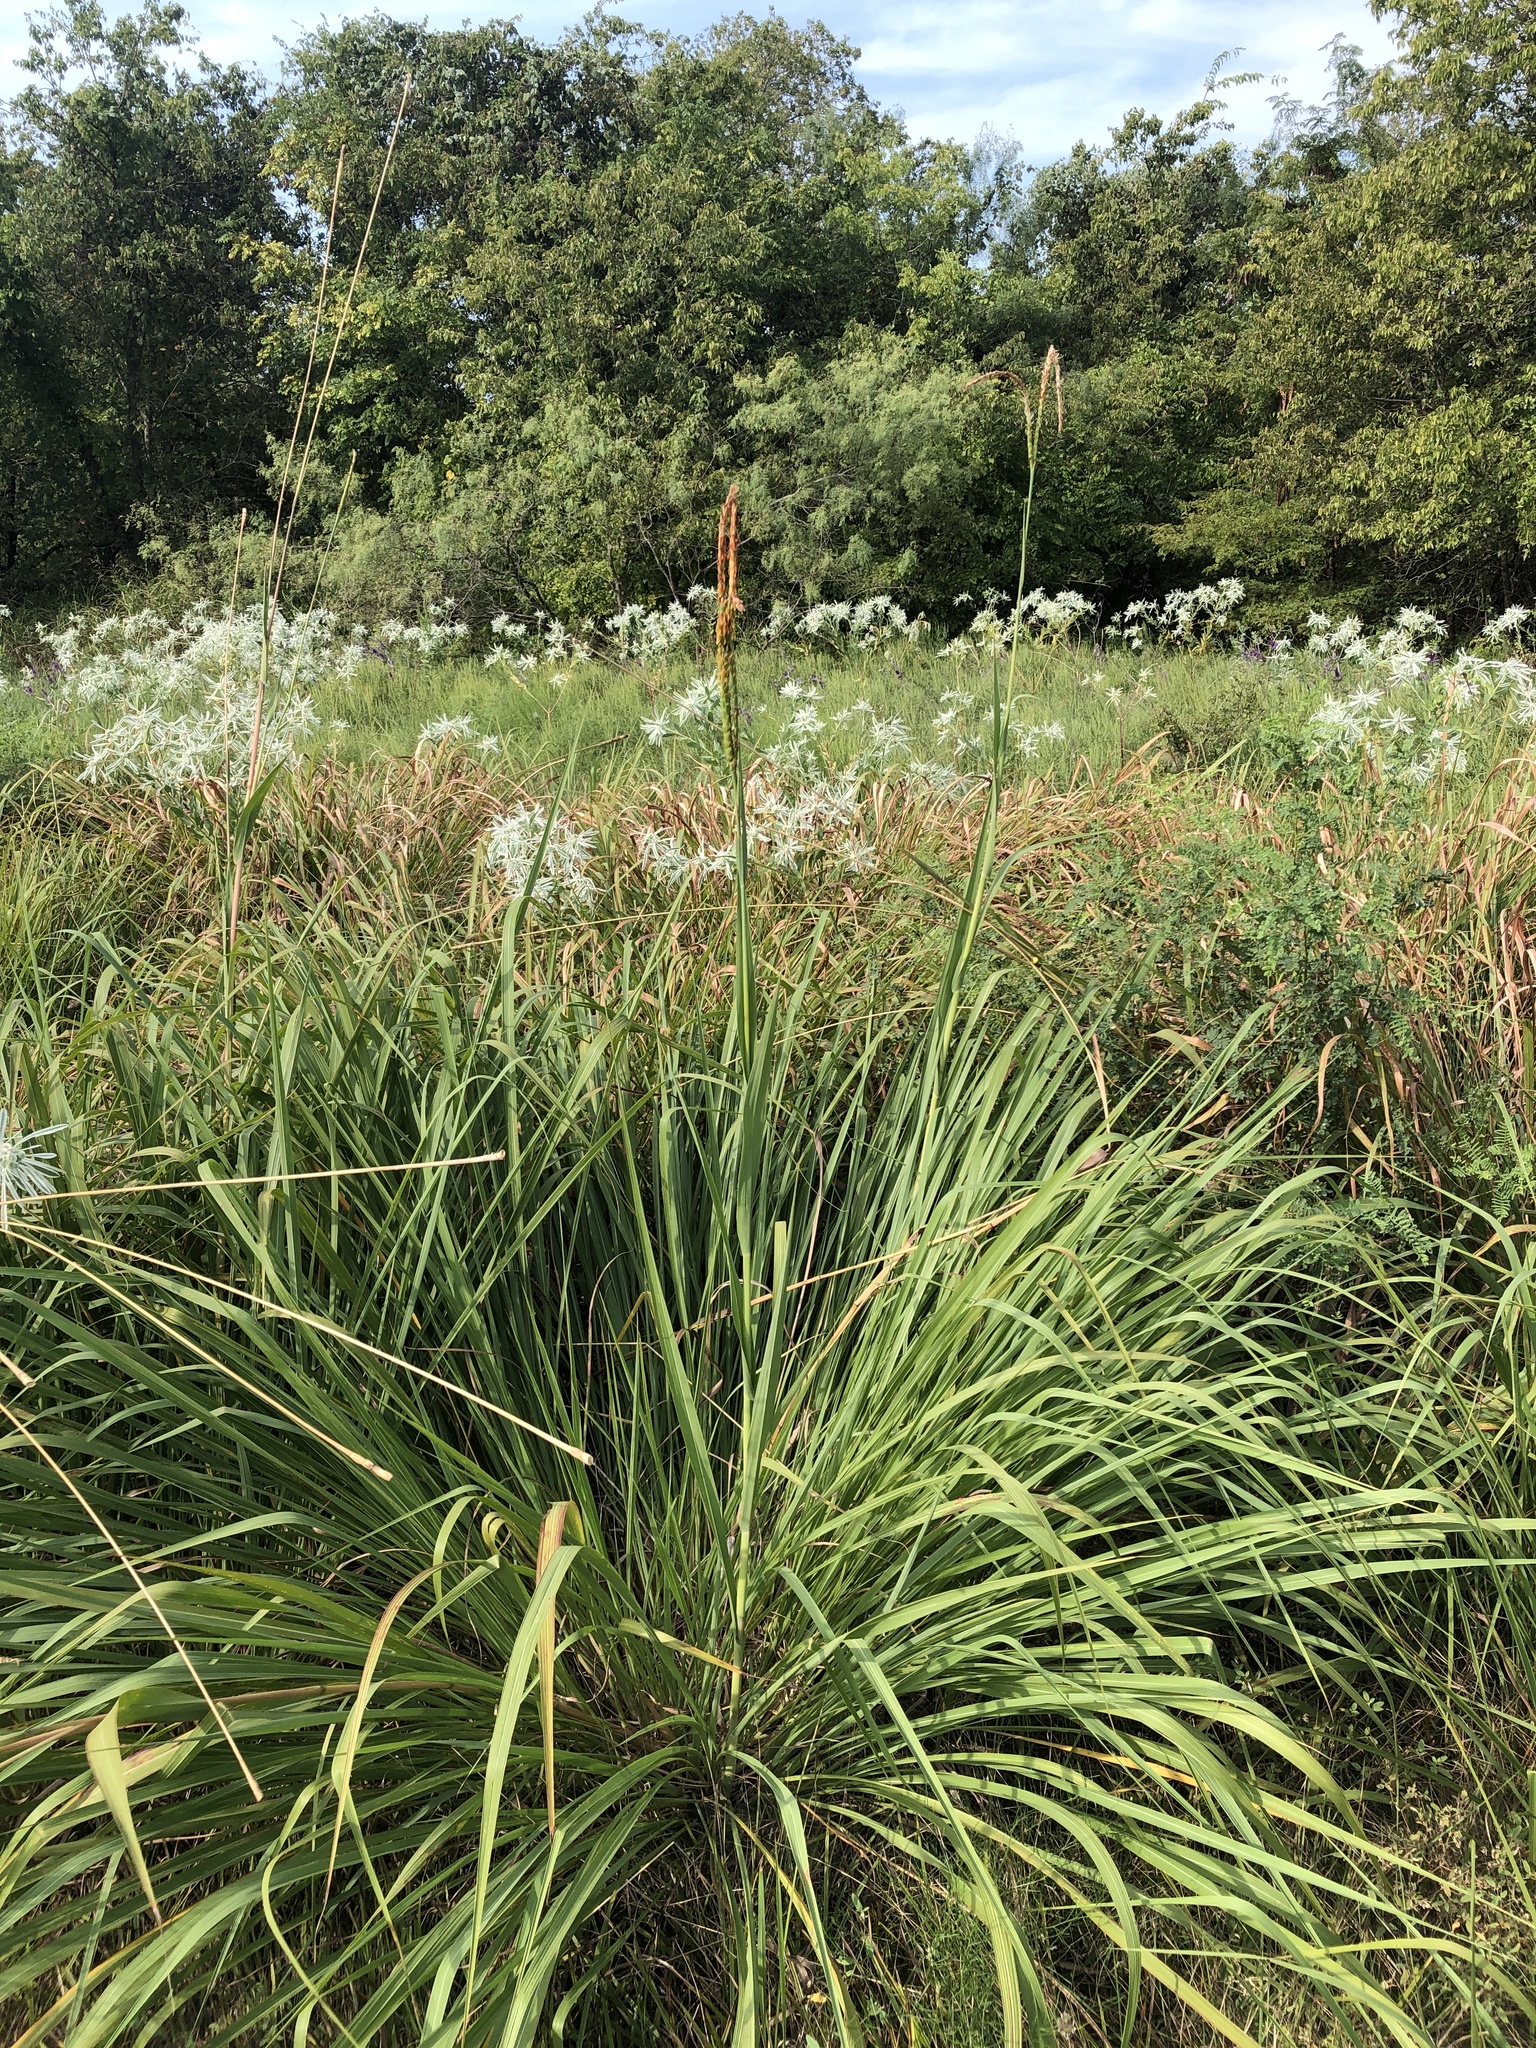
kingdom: Plantae
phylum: Tracheophyta
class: Liliopsida
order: Poales
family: Poaceae
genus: Tripsacum
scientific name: Tripsacum dactyloides
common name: Buffalo-grass
